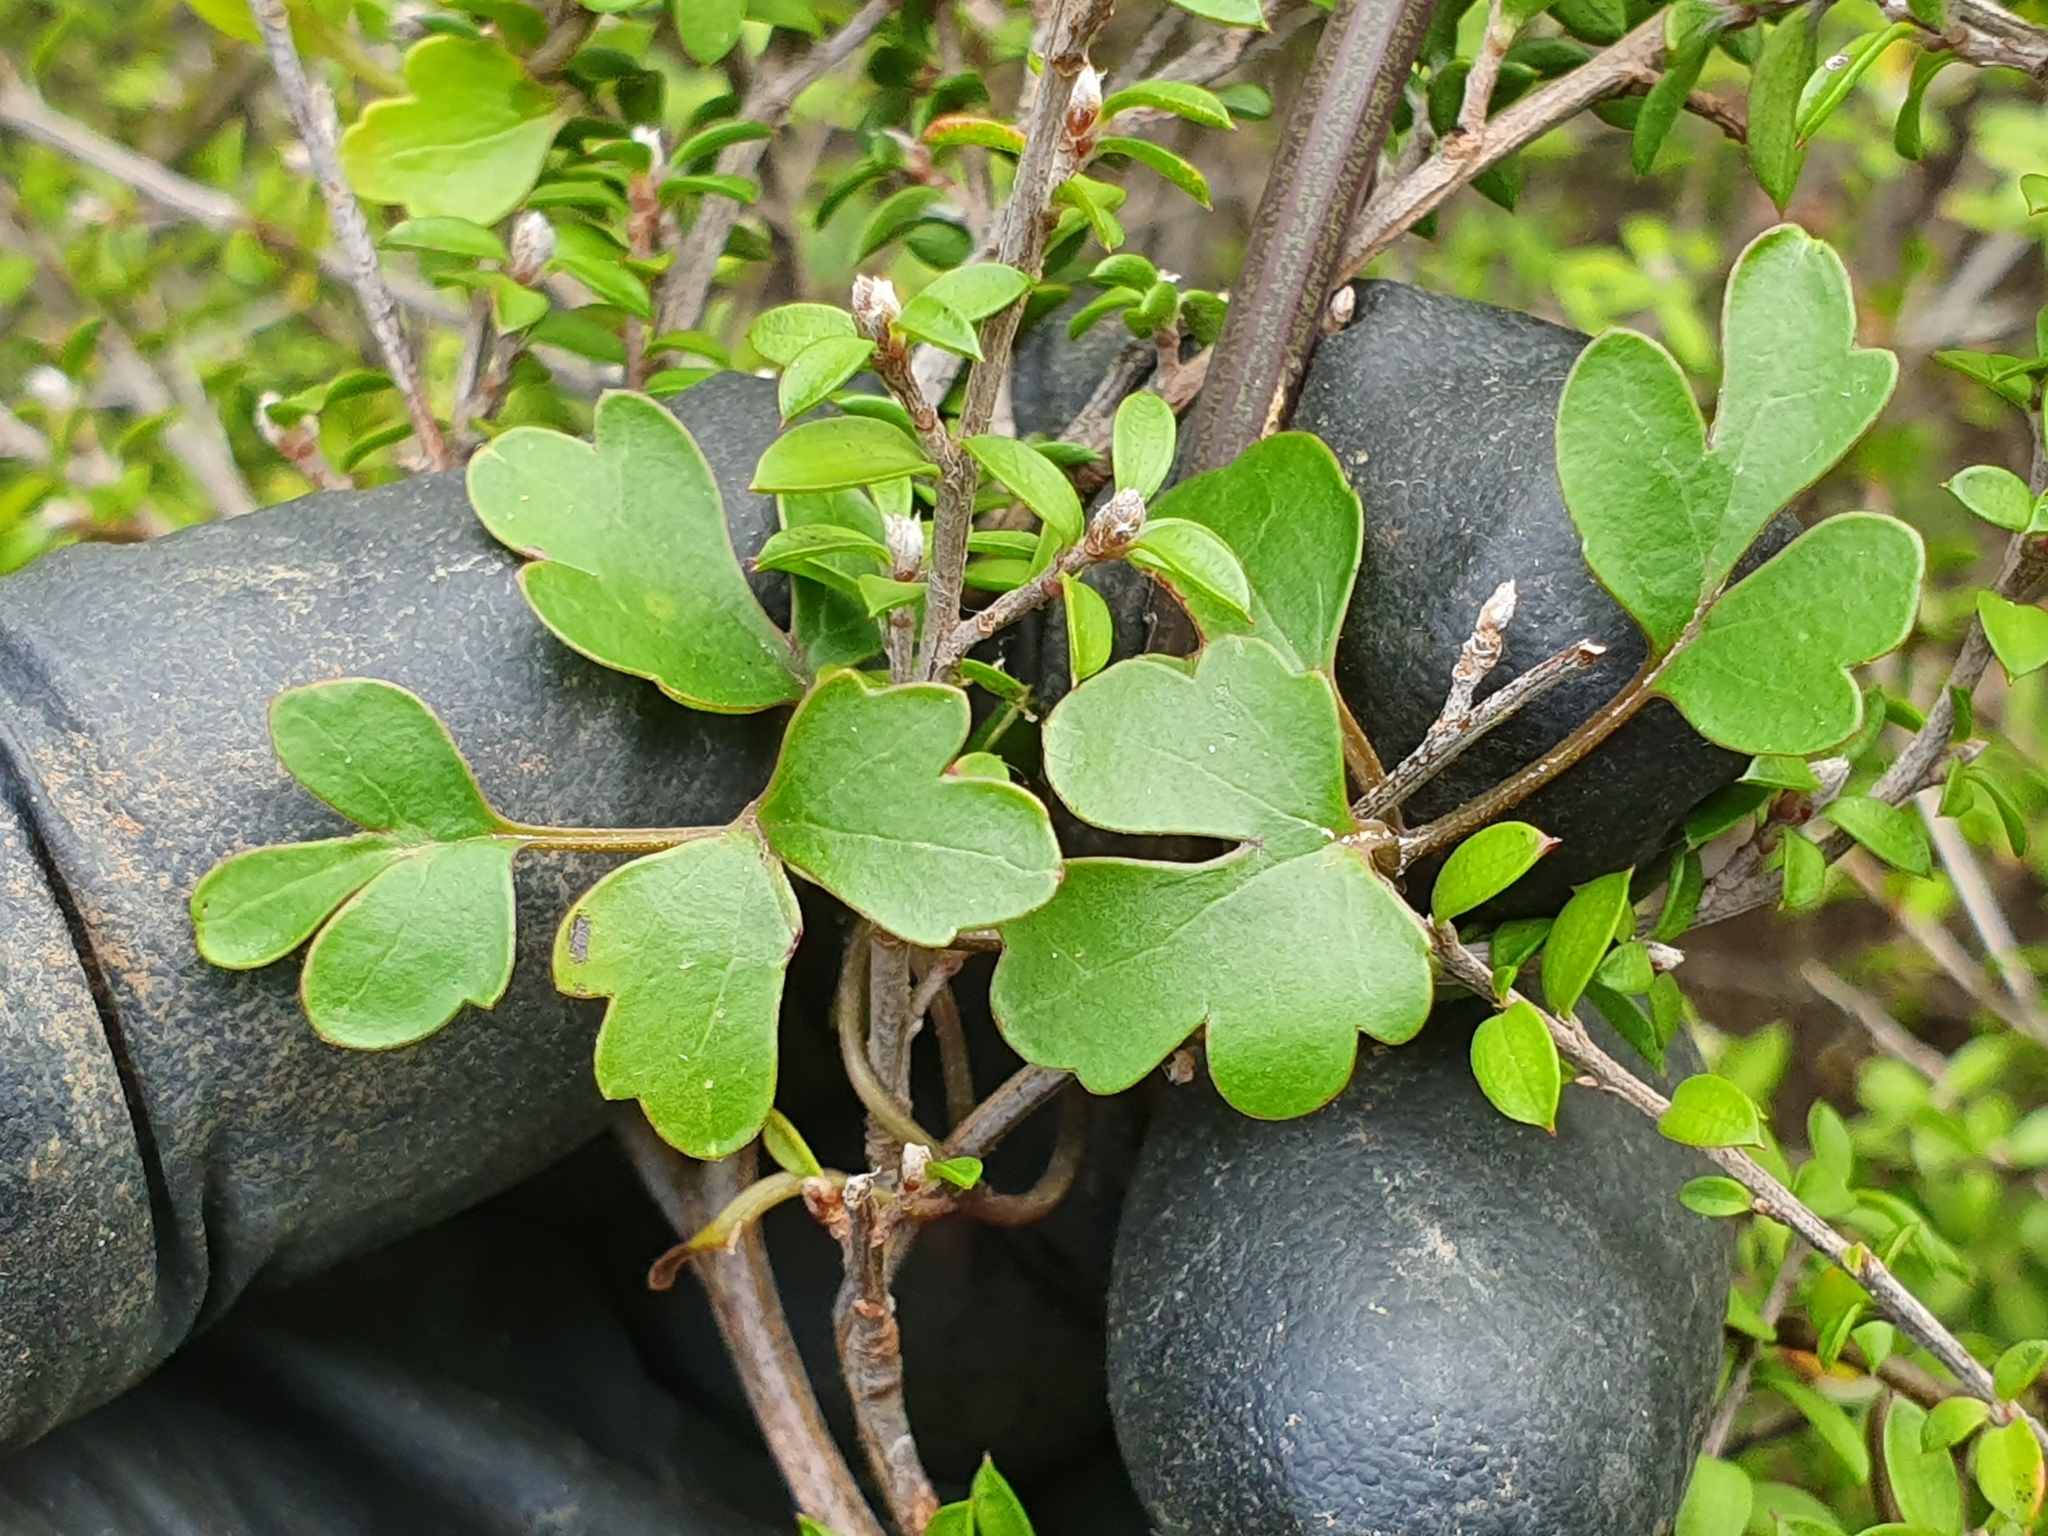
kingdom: Plantae
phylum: Tracheophyta
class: Magnoliopsida
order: Ranunculales
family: Ranunculaceae
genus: Clematis
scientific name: Clematis forsteri
